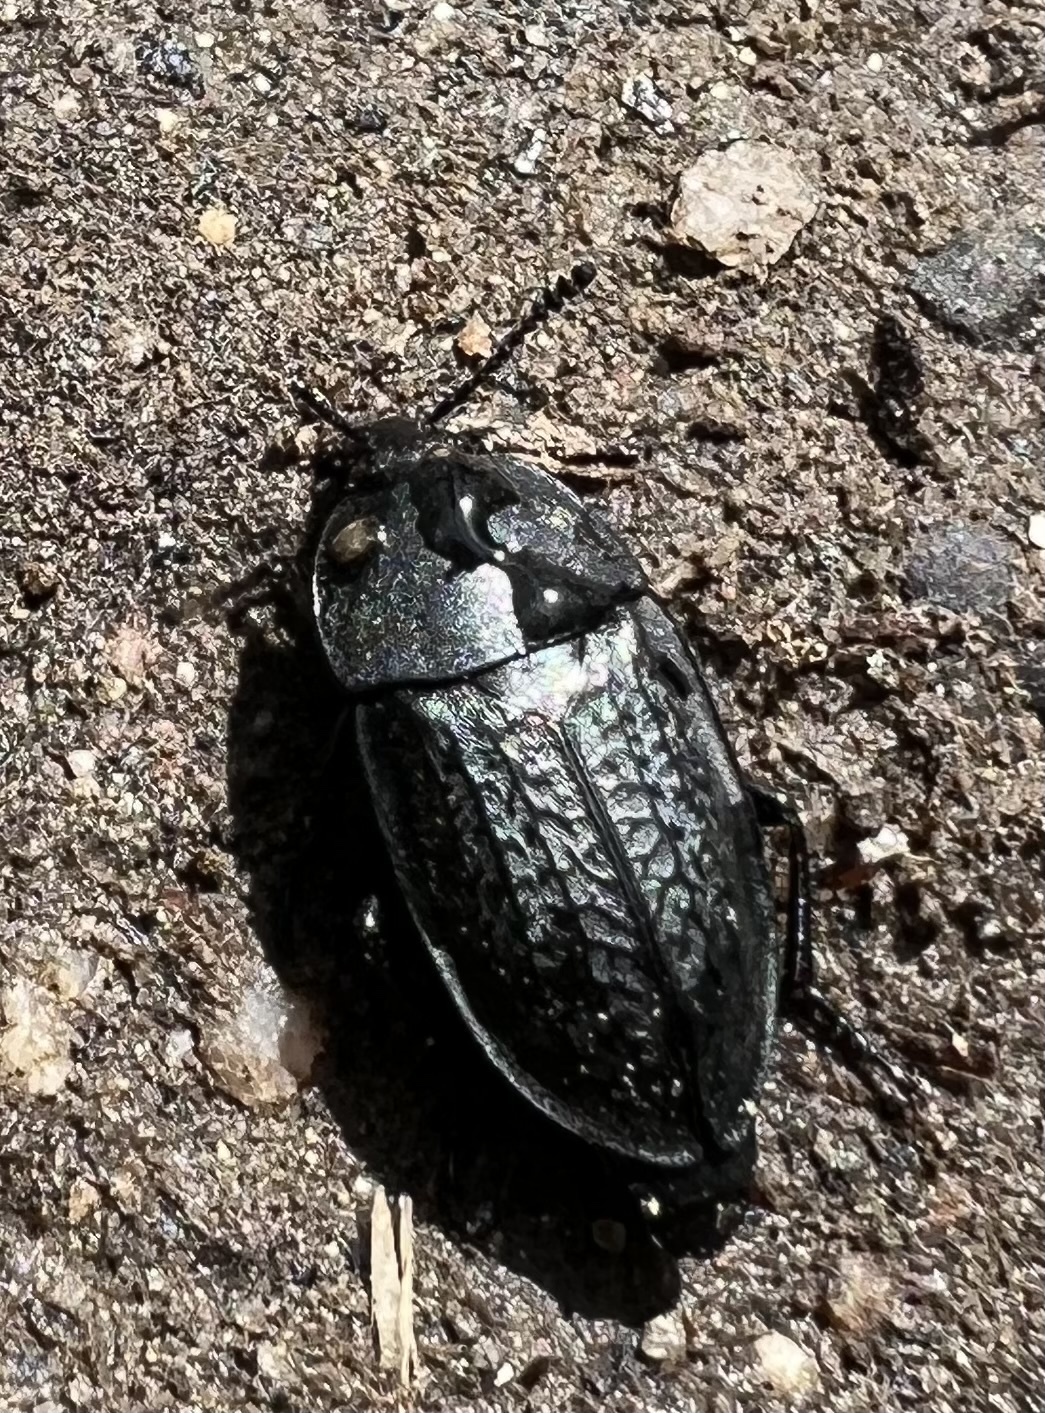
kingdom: Animalia
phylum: Arthropoda
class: Insecta
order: Coleoptera
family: Staphylinidae
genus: Heterosilpha
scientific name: Heterosilpha ramosa
